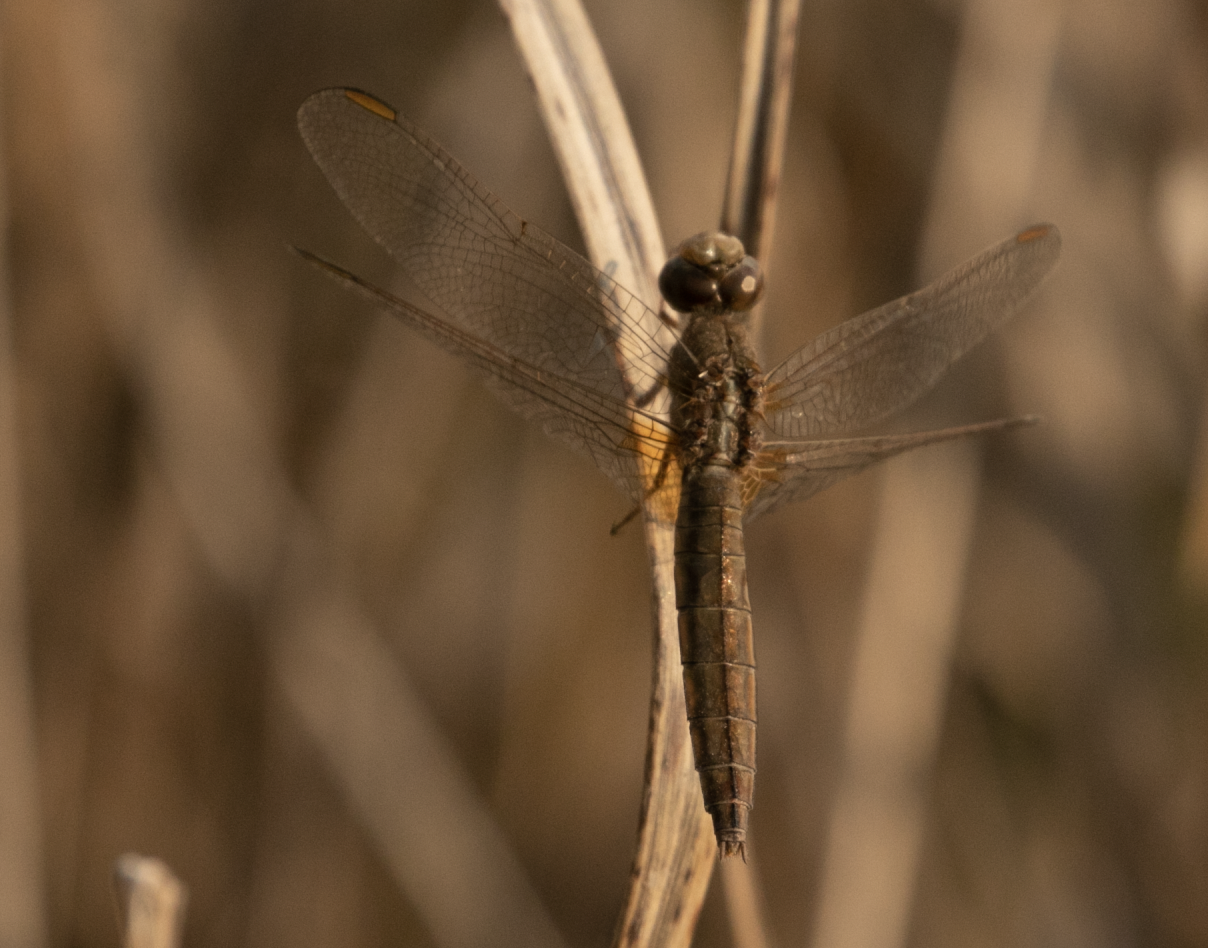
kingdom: Animalia
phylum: Arthropoda
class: Insecta
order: Odonata
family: Libellulidae
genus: Crocothemis
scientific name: Crocothemis erythraea
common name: Scarlet dragonfly
